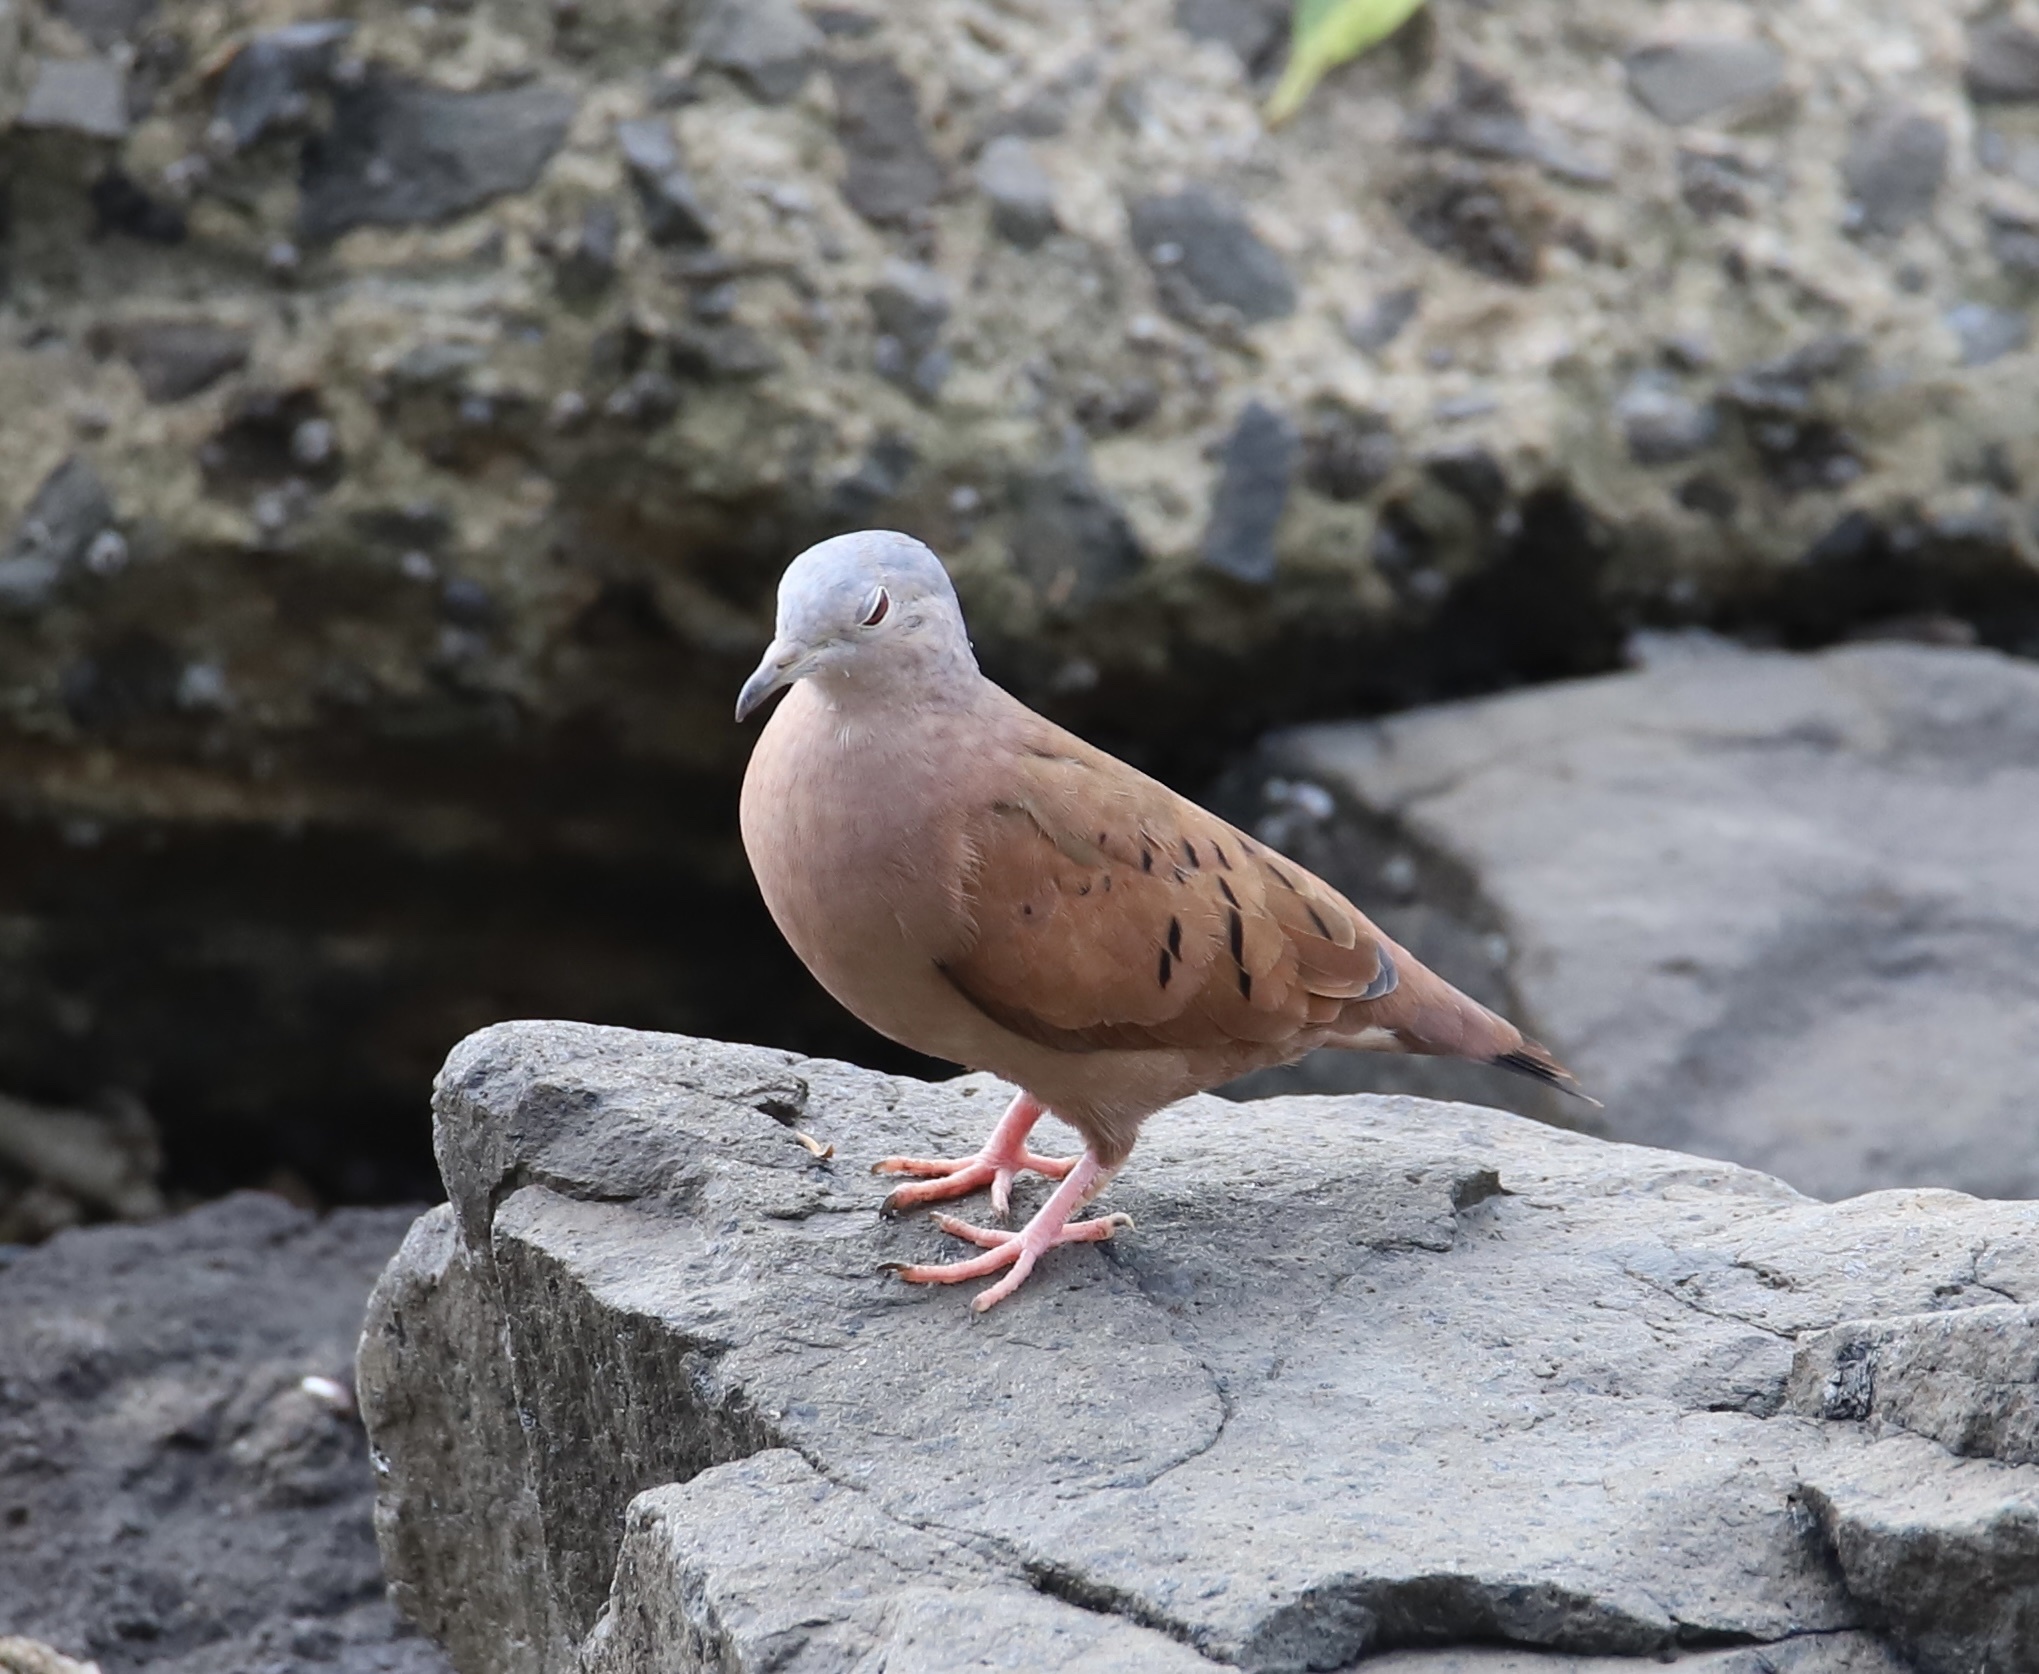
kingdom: Animalia
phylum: Chordata
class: Aves
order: Columbiformes
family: Columbidae
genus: Columbina
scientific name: Columbina talpacoti
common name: Ruddy ground dove
